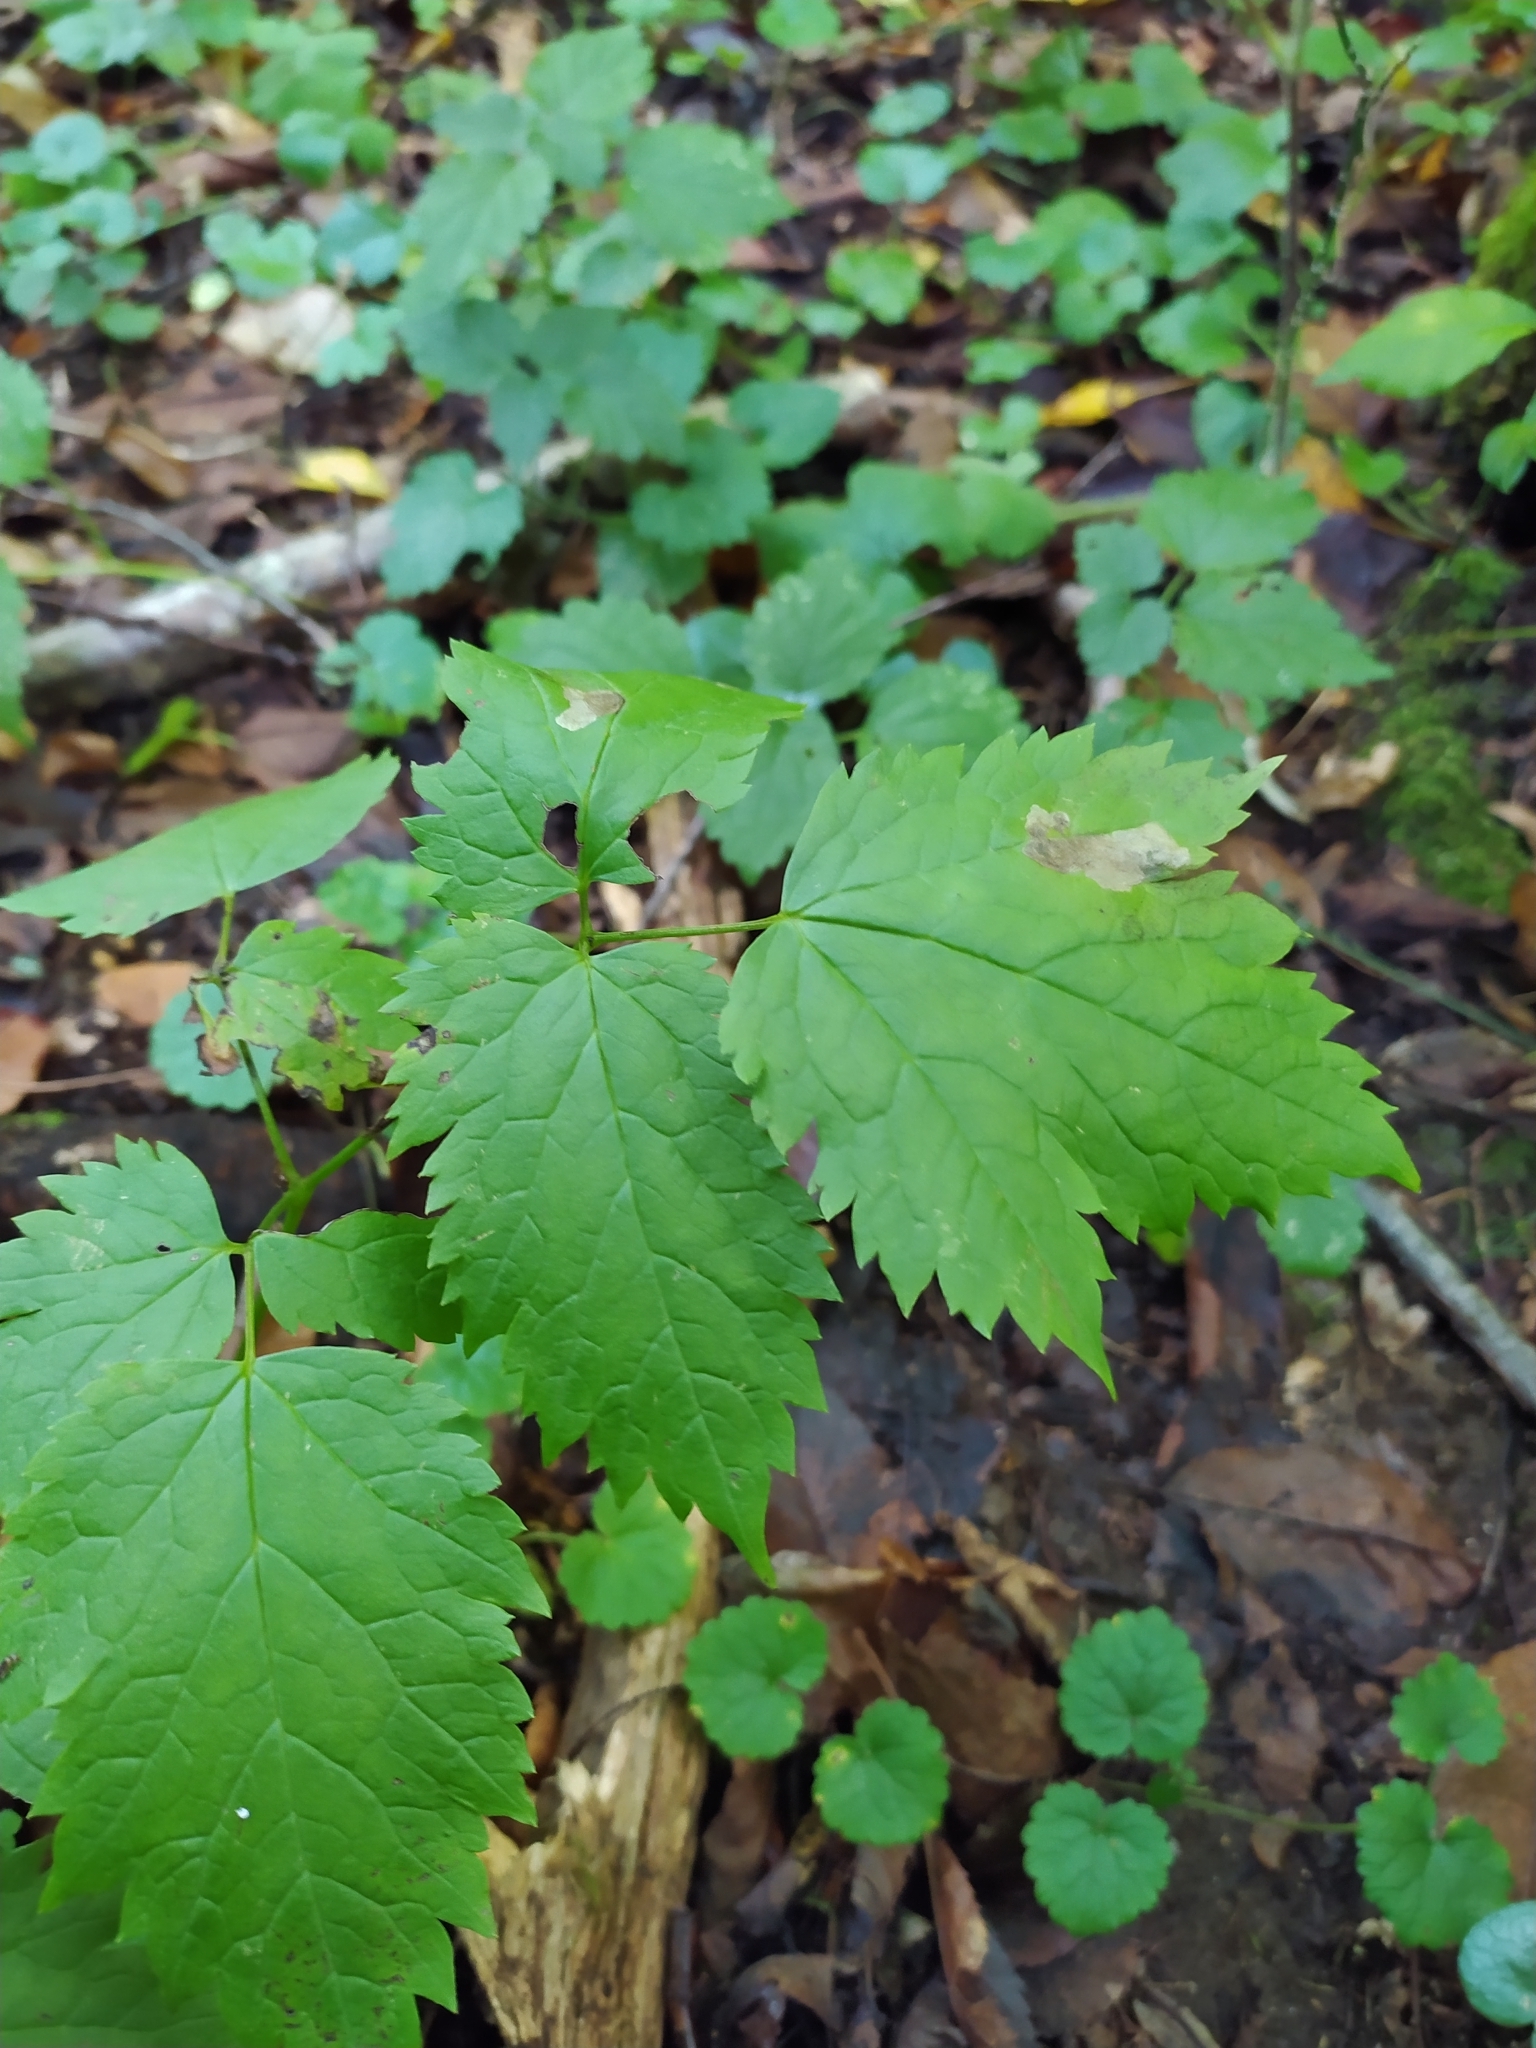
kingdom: Plantae
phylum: Tracheophyta
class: Magnoliopsida
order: Ranunculales
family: Ranunculaceae
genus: Actaea
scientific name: Actaea spicata
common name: Baneberry
